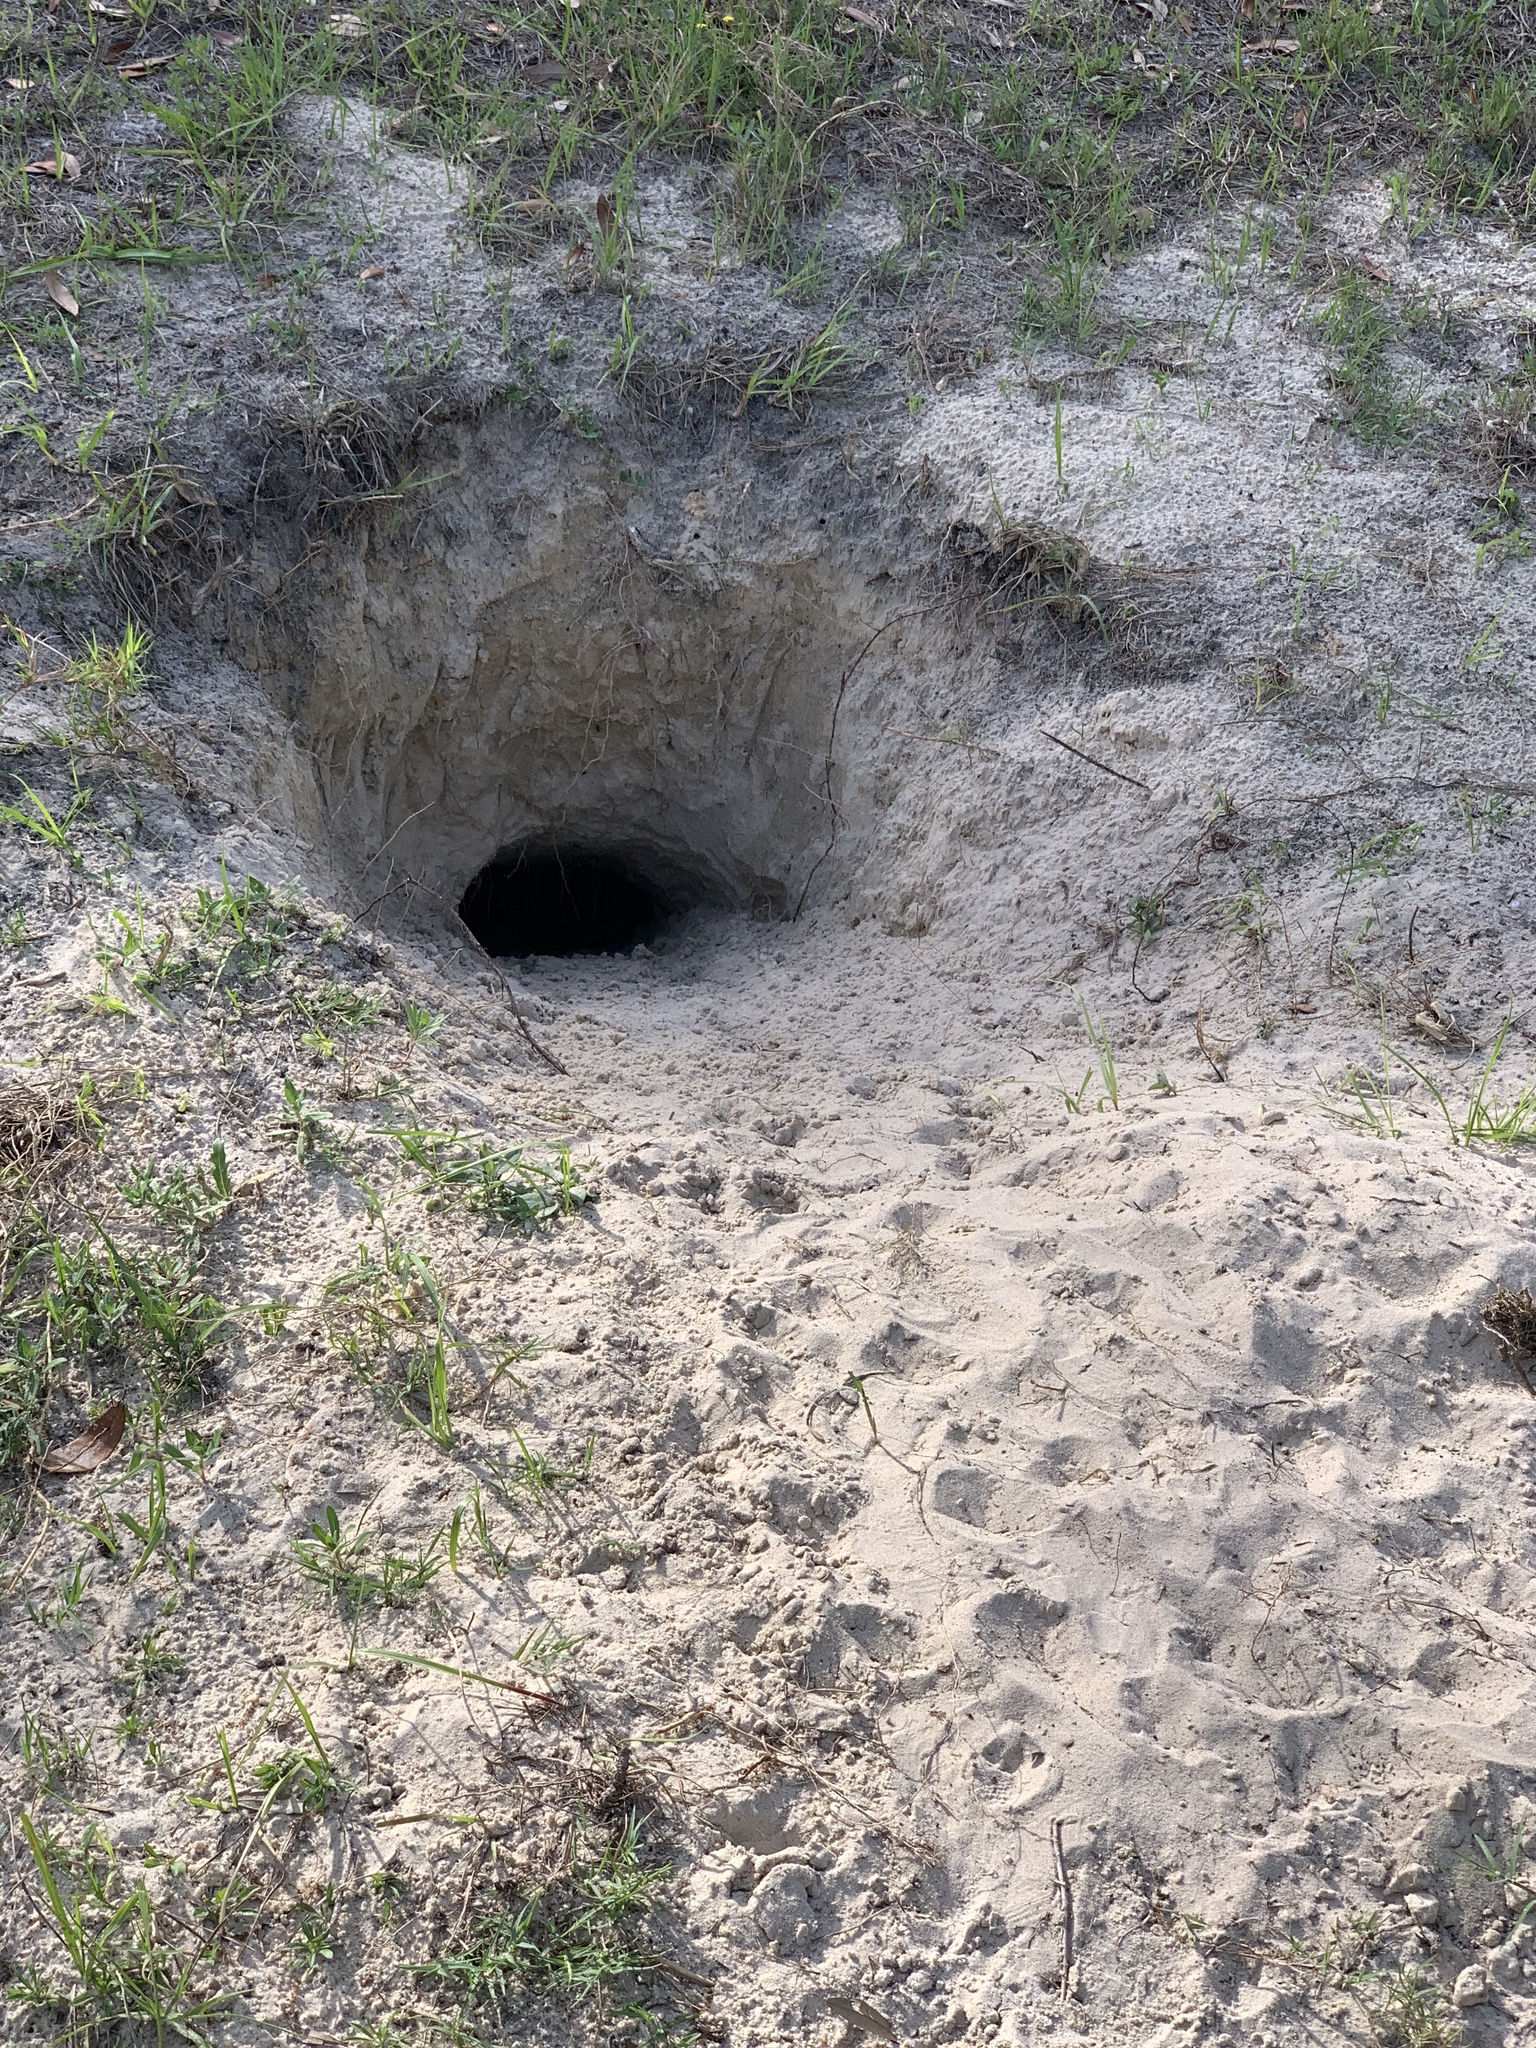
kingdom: Animalia
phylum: Chordata
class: Testudines
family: Testudinidae
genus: Gopherus
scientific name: Gopherus polyphemus
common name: Florida gopher tortoise
